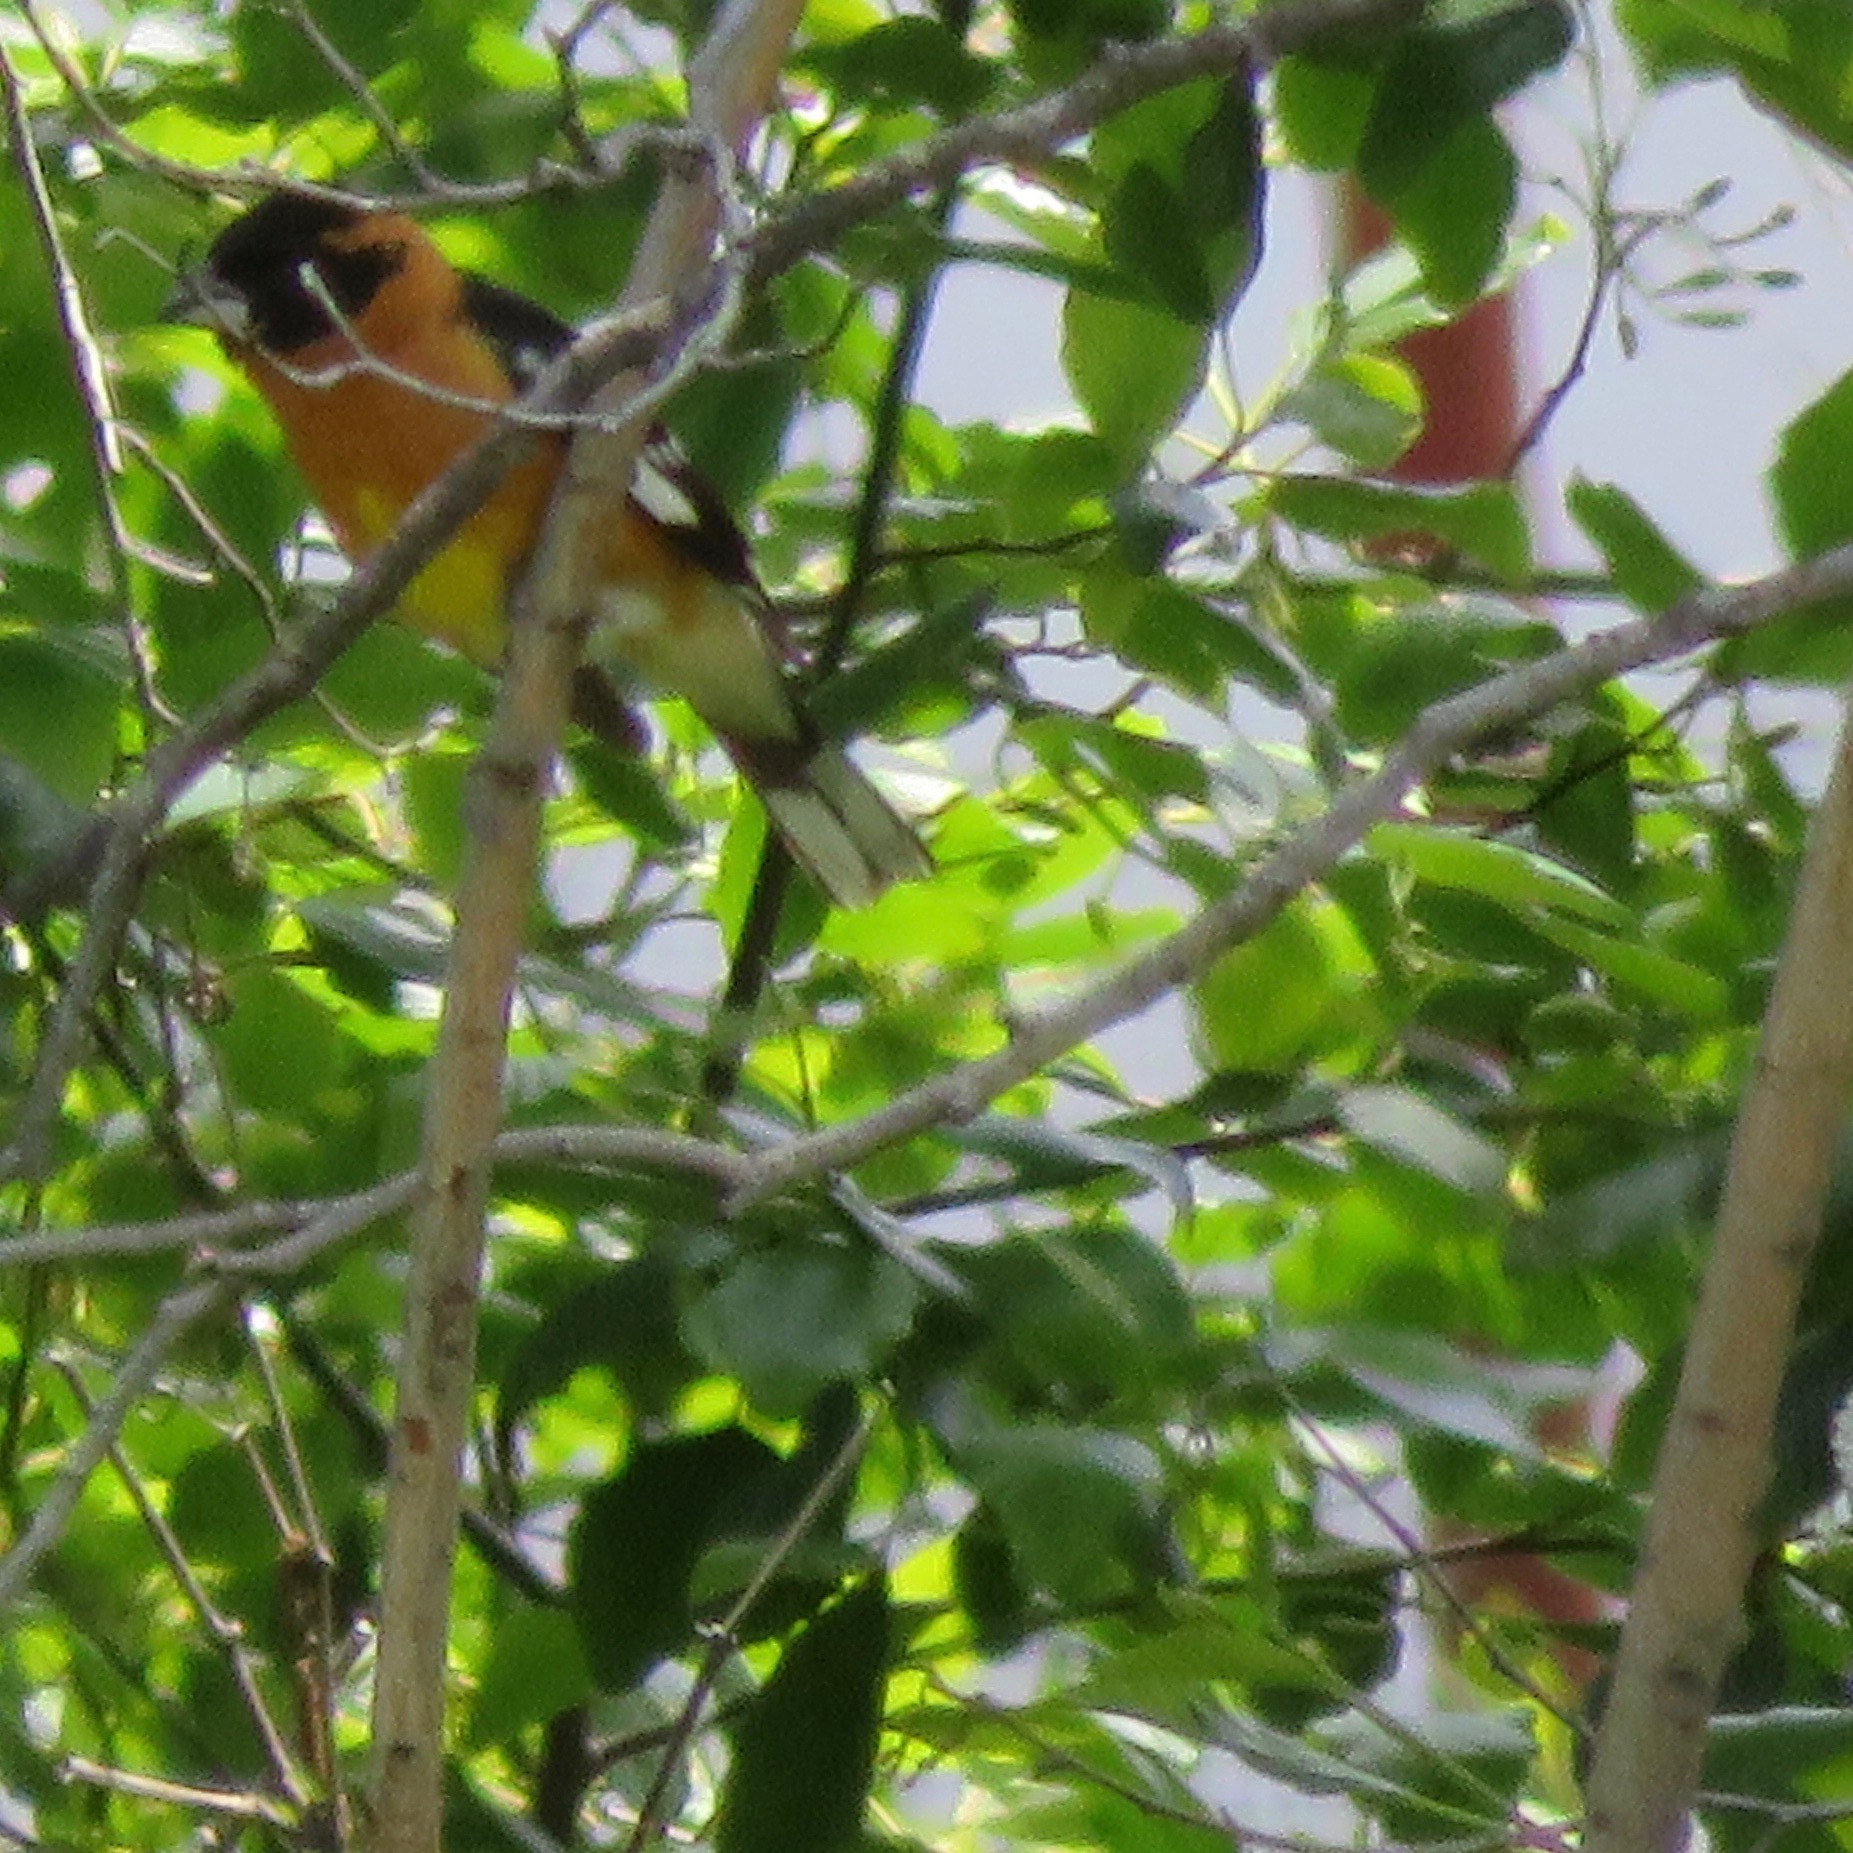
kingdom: Animalia
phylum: Chordata
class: Aves
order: Passeriformes
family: Cardinalidae
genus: Pheucticus
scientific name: Pheucticus melanocephalus
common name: Black-headed grosbeak
